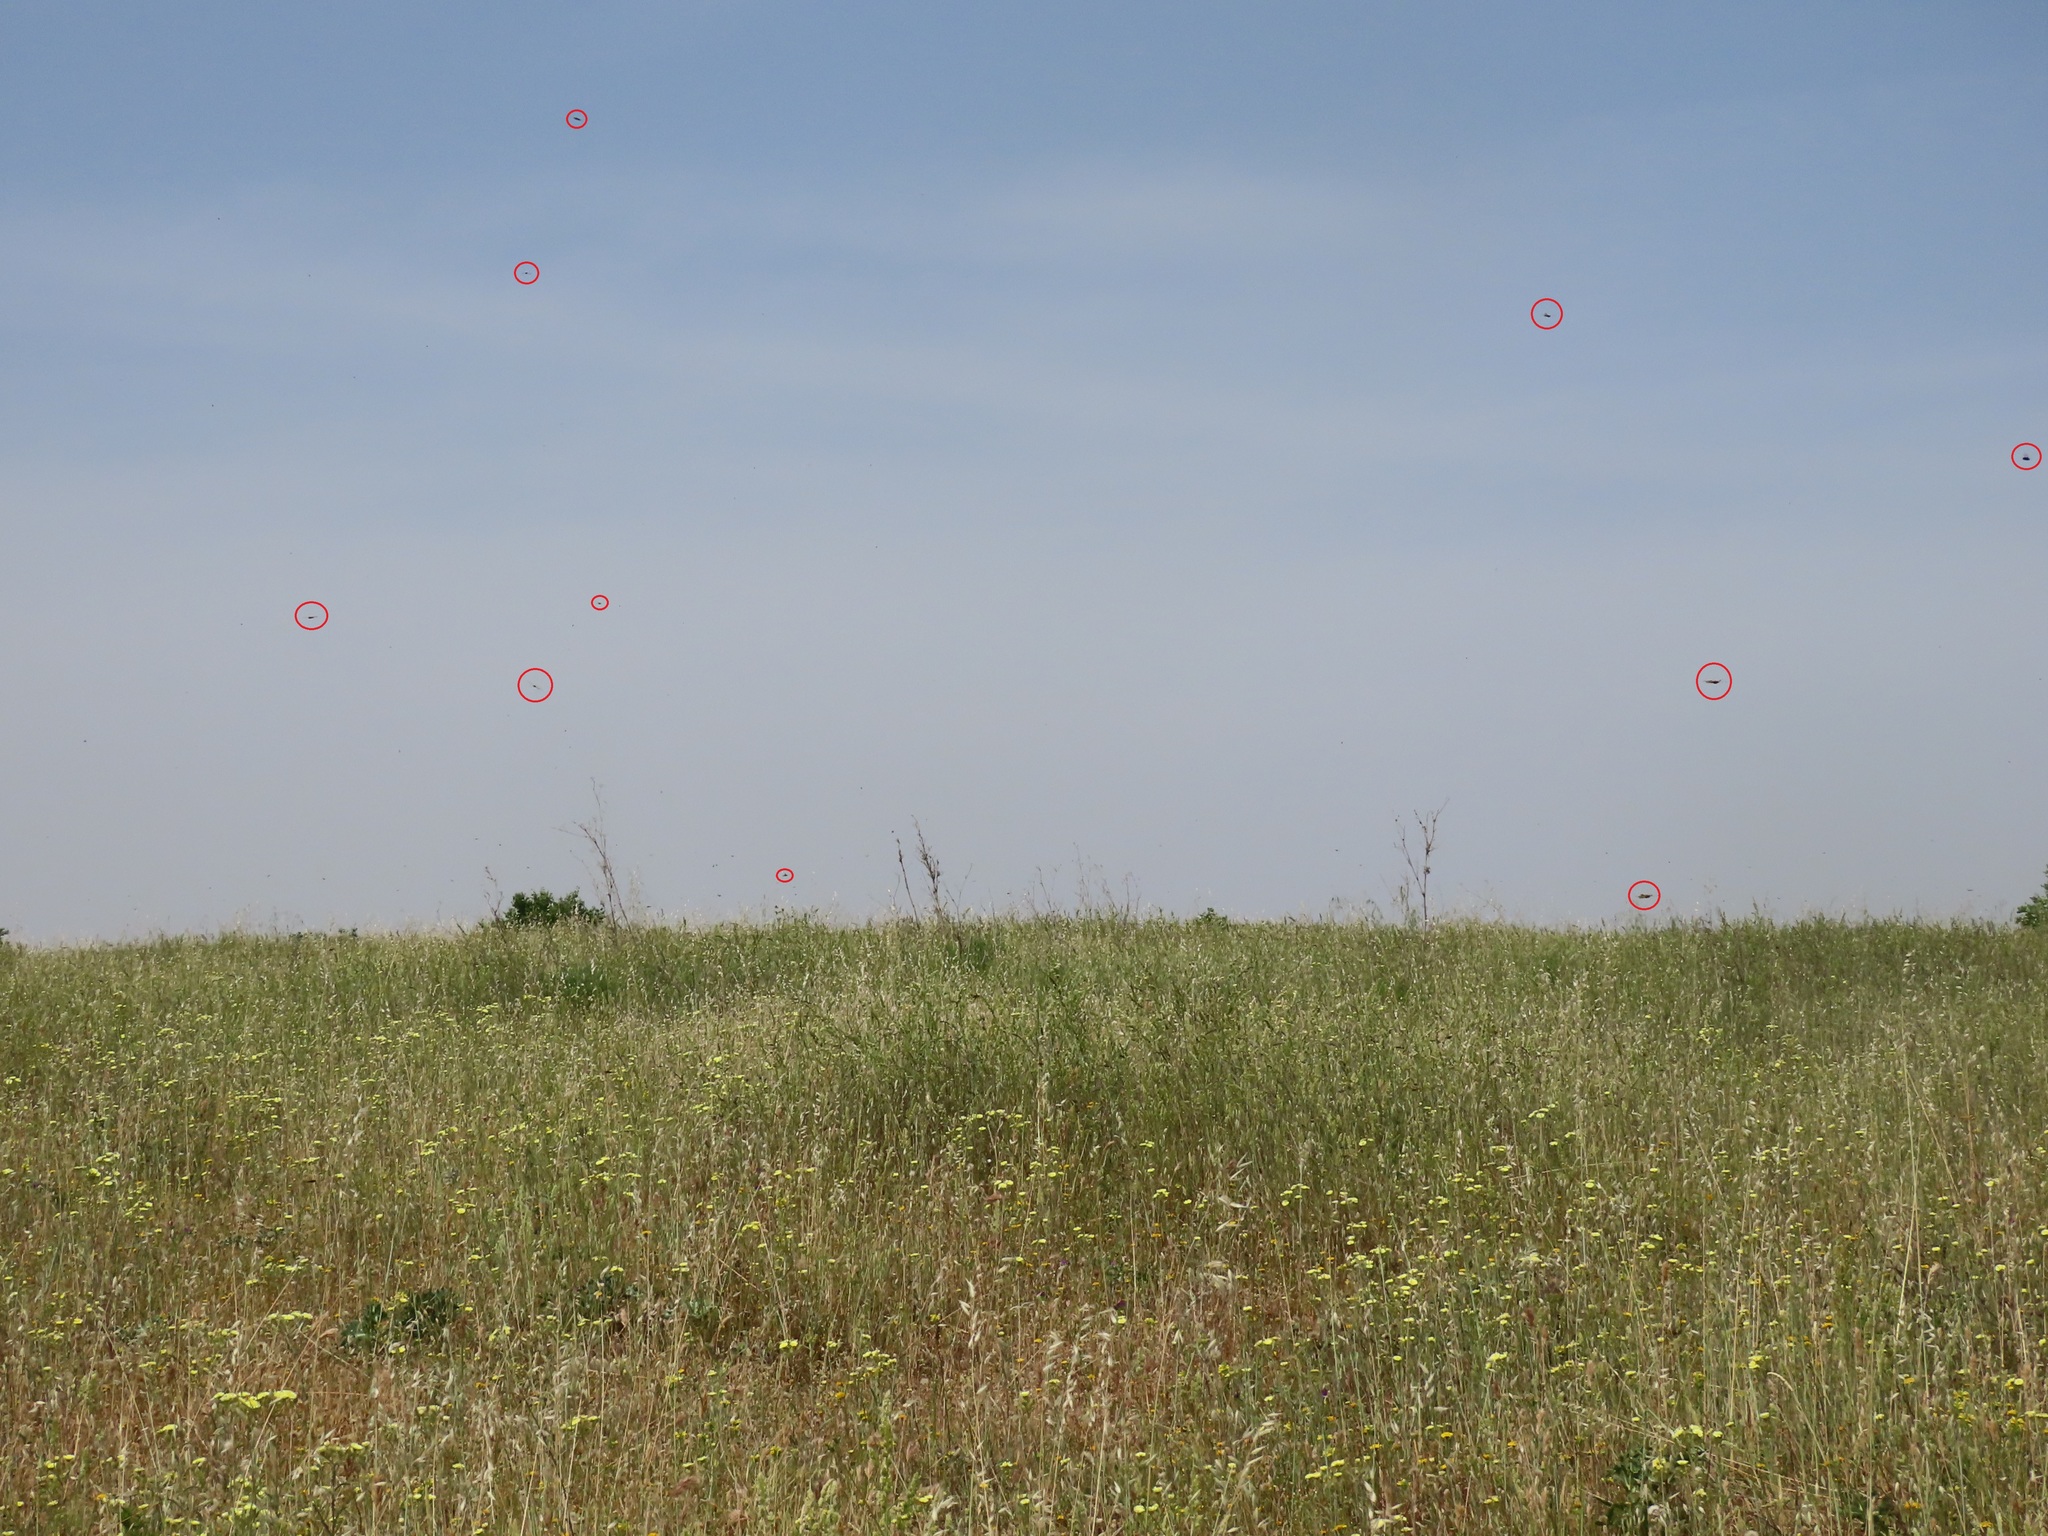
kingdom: Animalia
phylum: Arthropoda
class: Insecta
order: Neuroptera
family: Ascalaphidae
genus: Libelloides
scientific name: Libelloides ictericus
